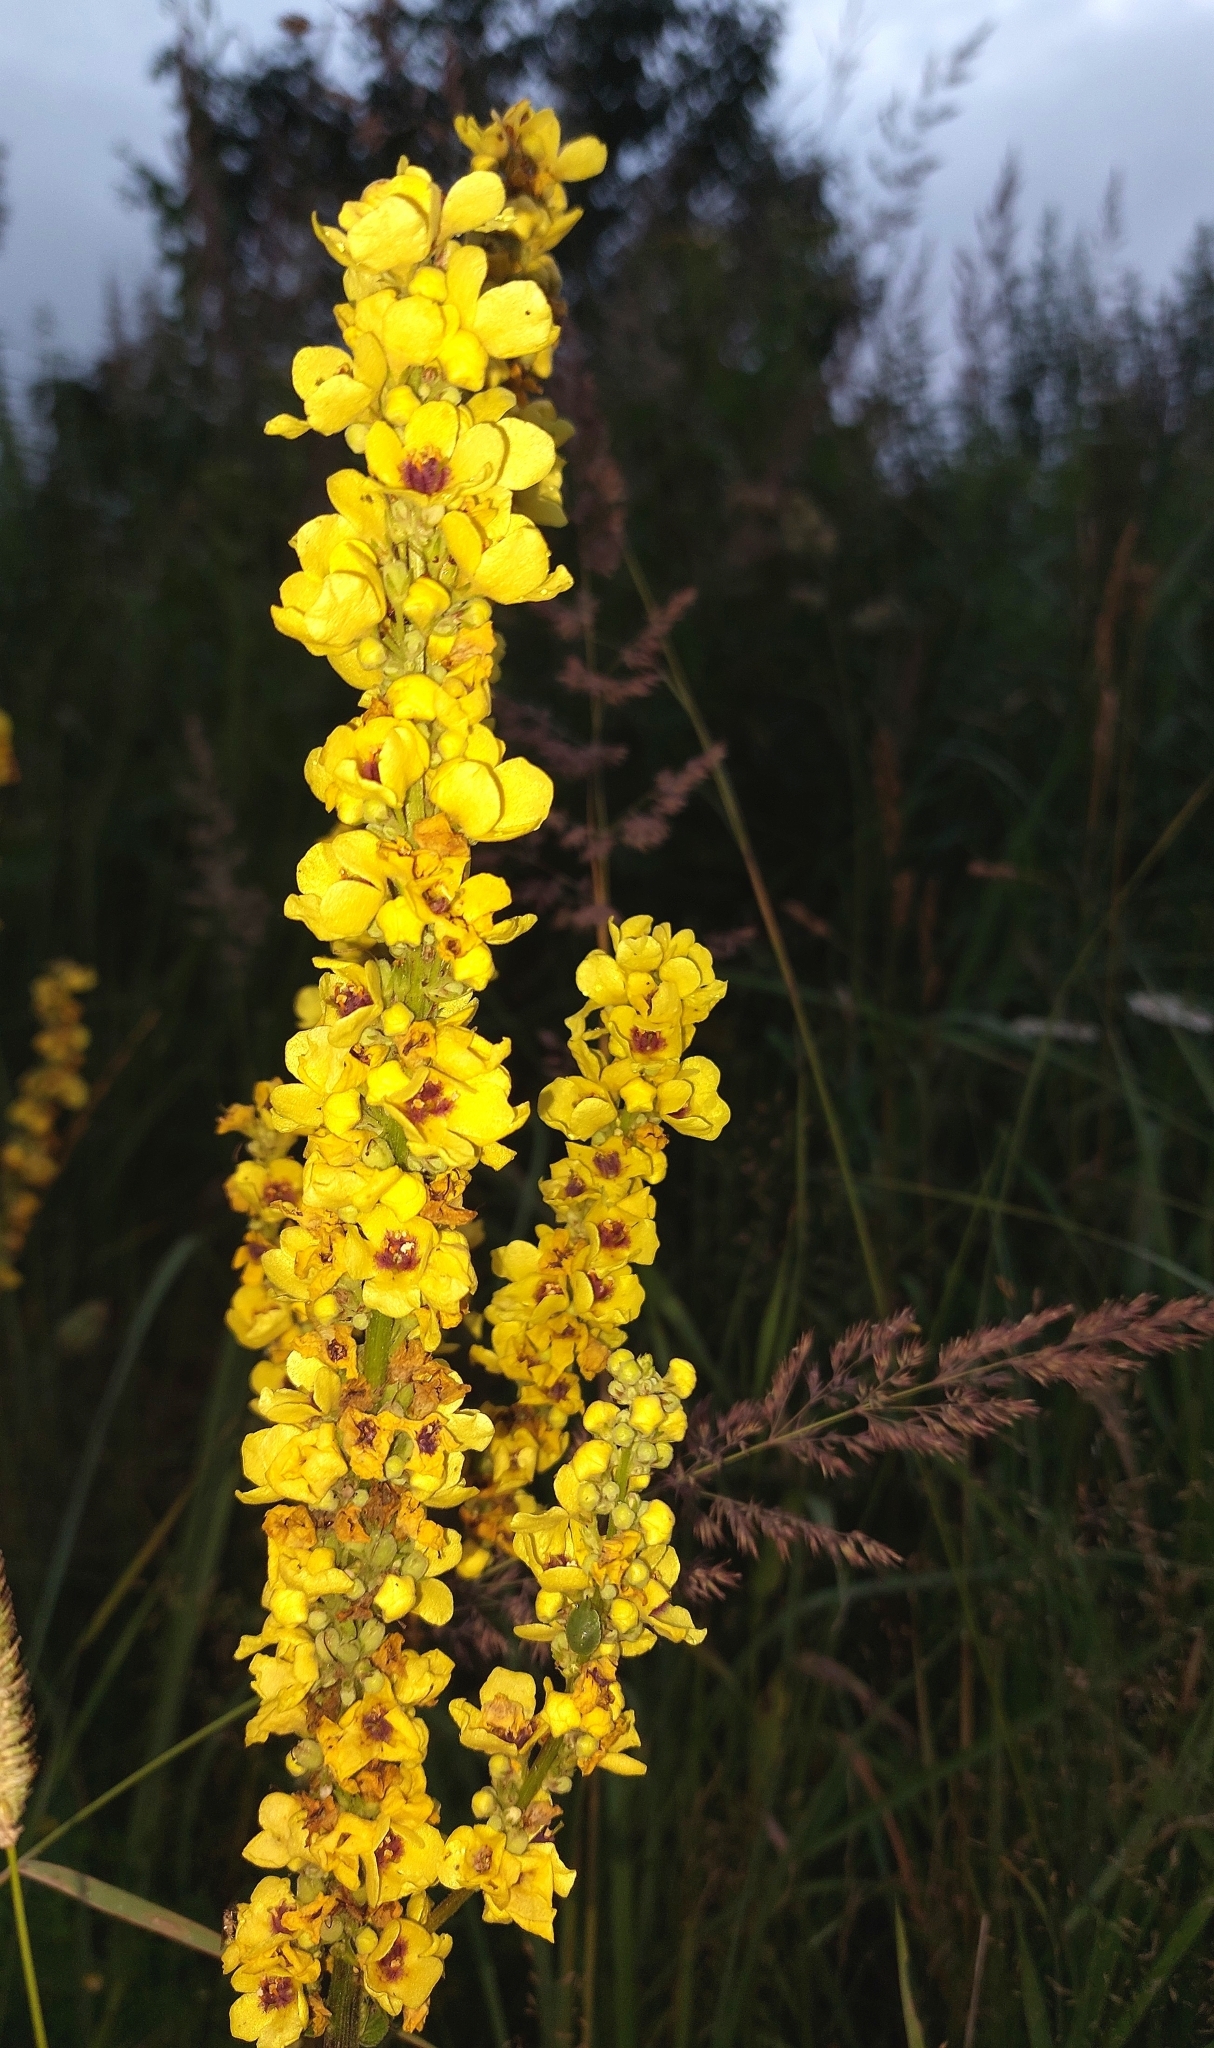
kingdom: Plantae
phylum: Tracheophyta
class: Magnoliopsida
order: Lamiales
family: Scrophulariaceae
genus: Verbascum
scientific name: Verbascum nigrum
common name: Dark mullein
